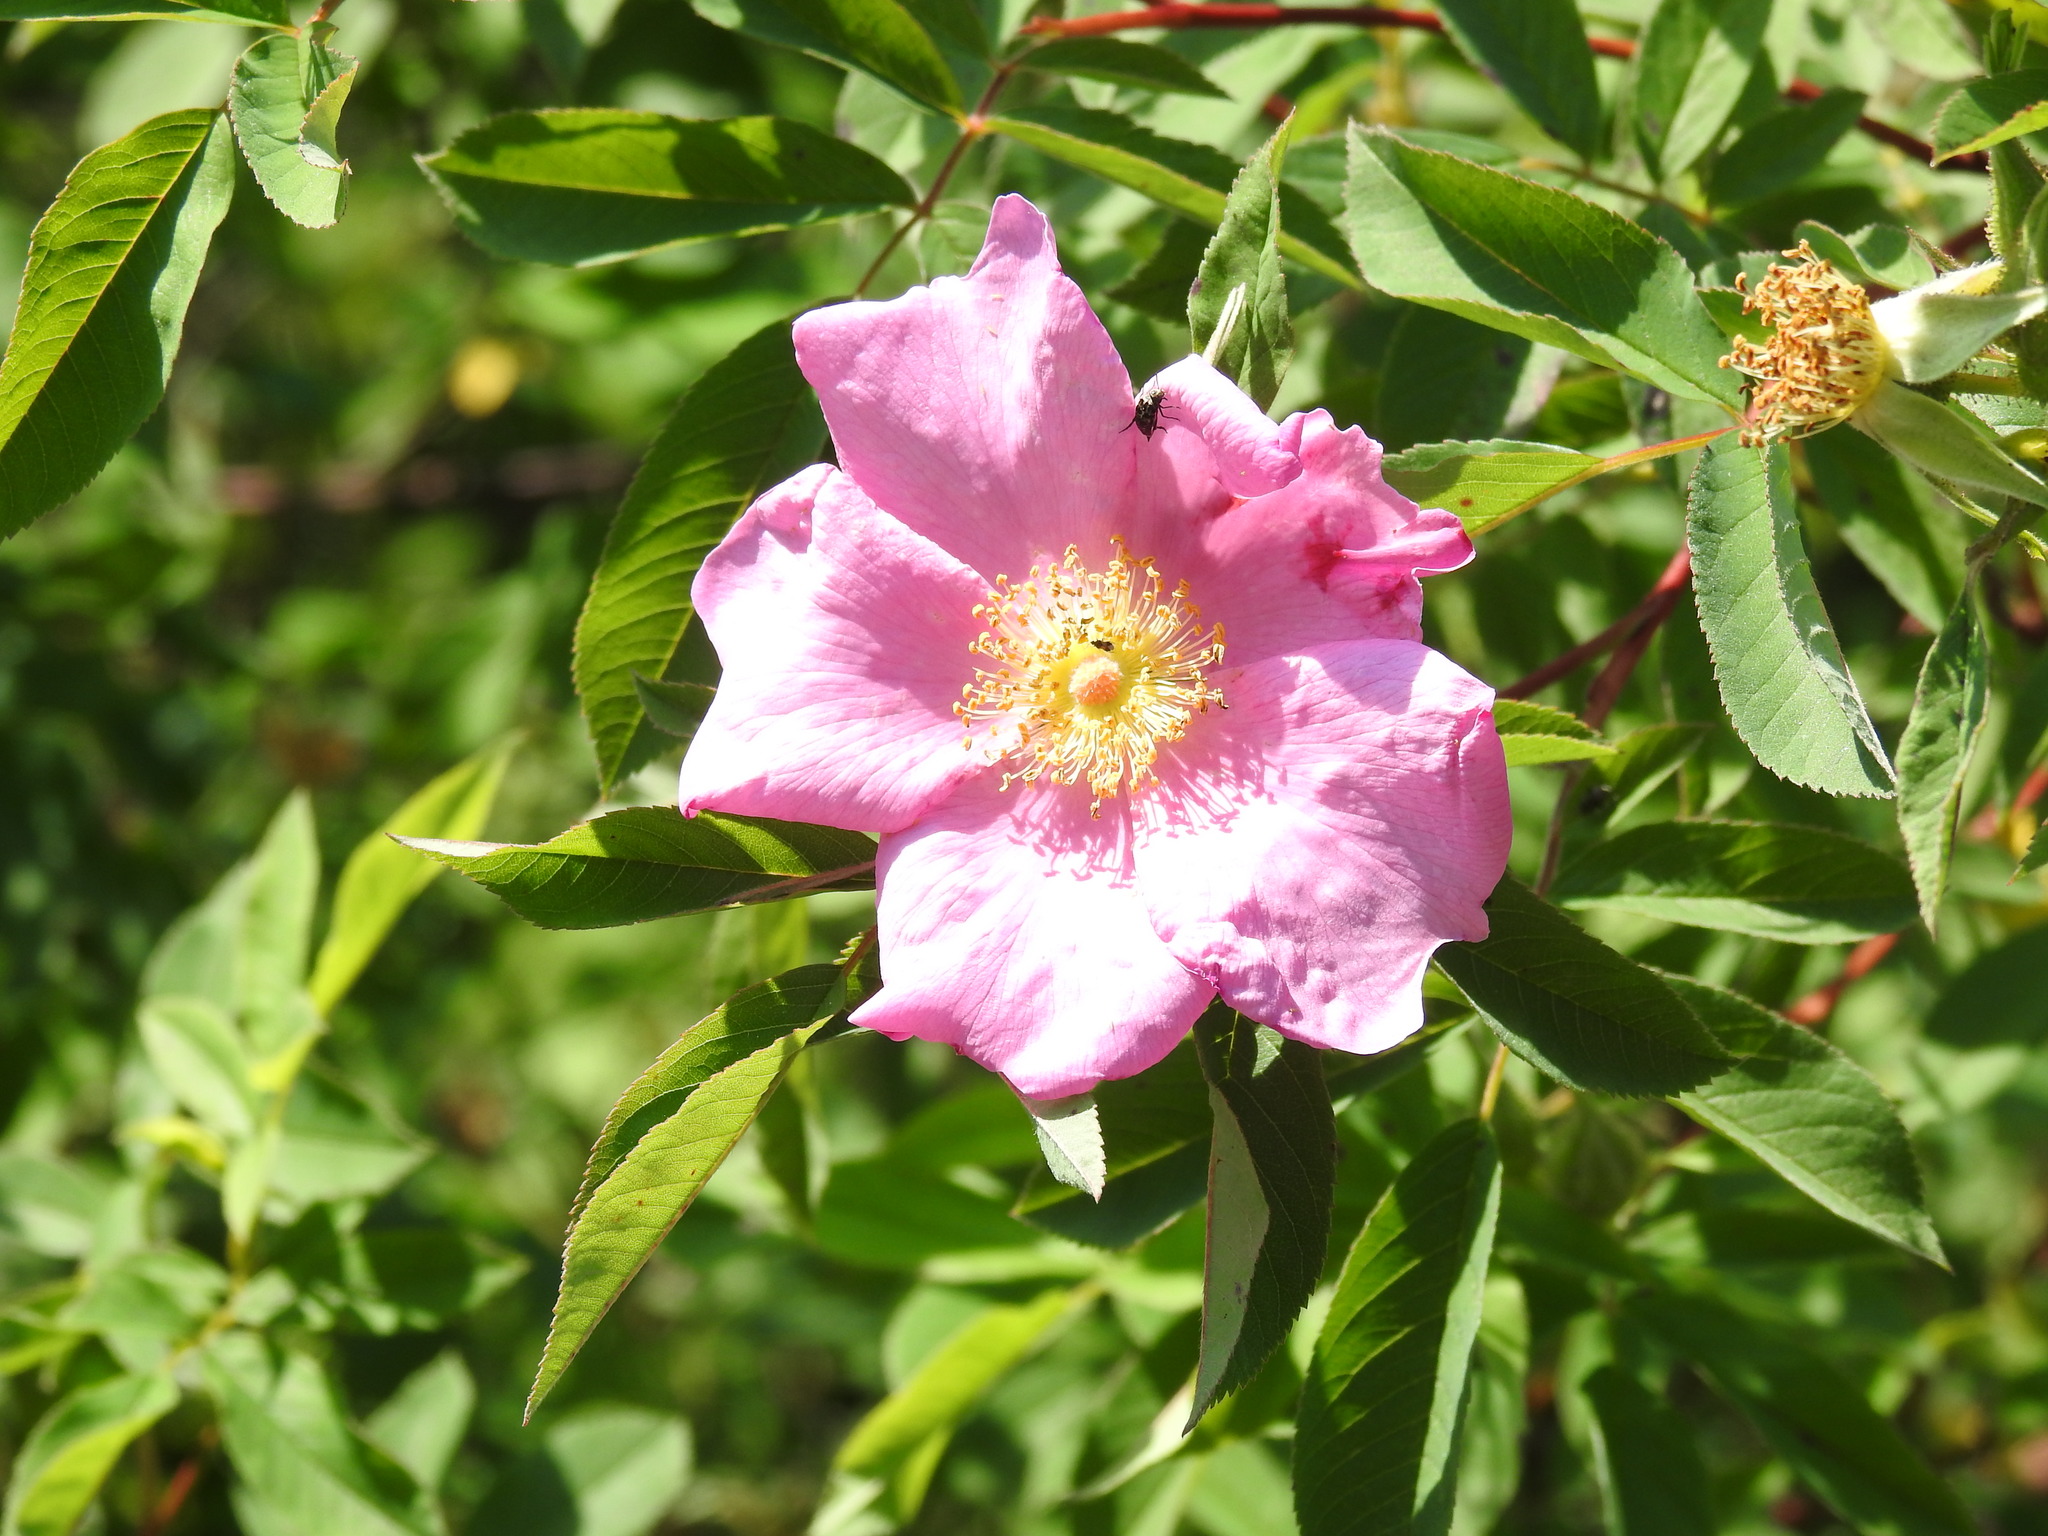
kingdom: Plantae
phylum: Tracheophyta
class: Magnoliopsida
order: Rosales
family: Rosaceae
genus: Rosa
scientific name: Rosa palustris
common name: Swamp rose
